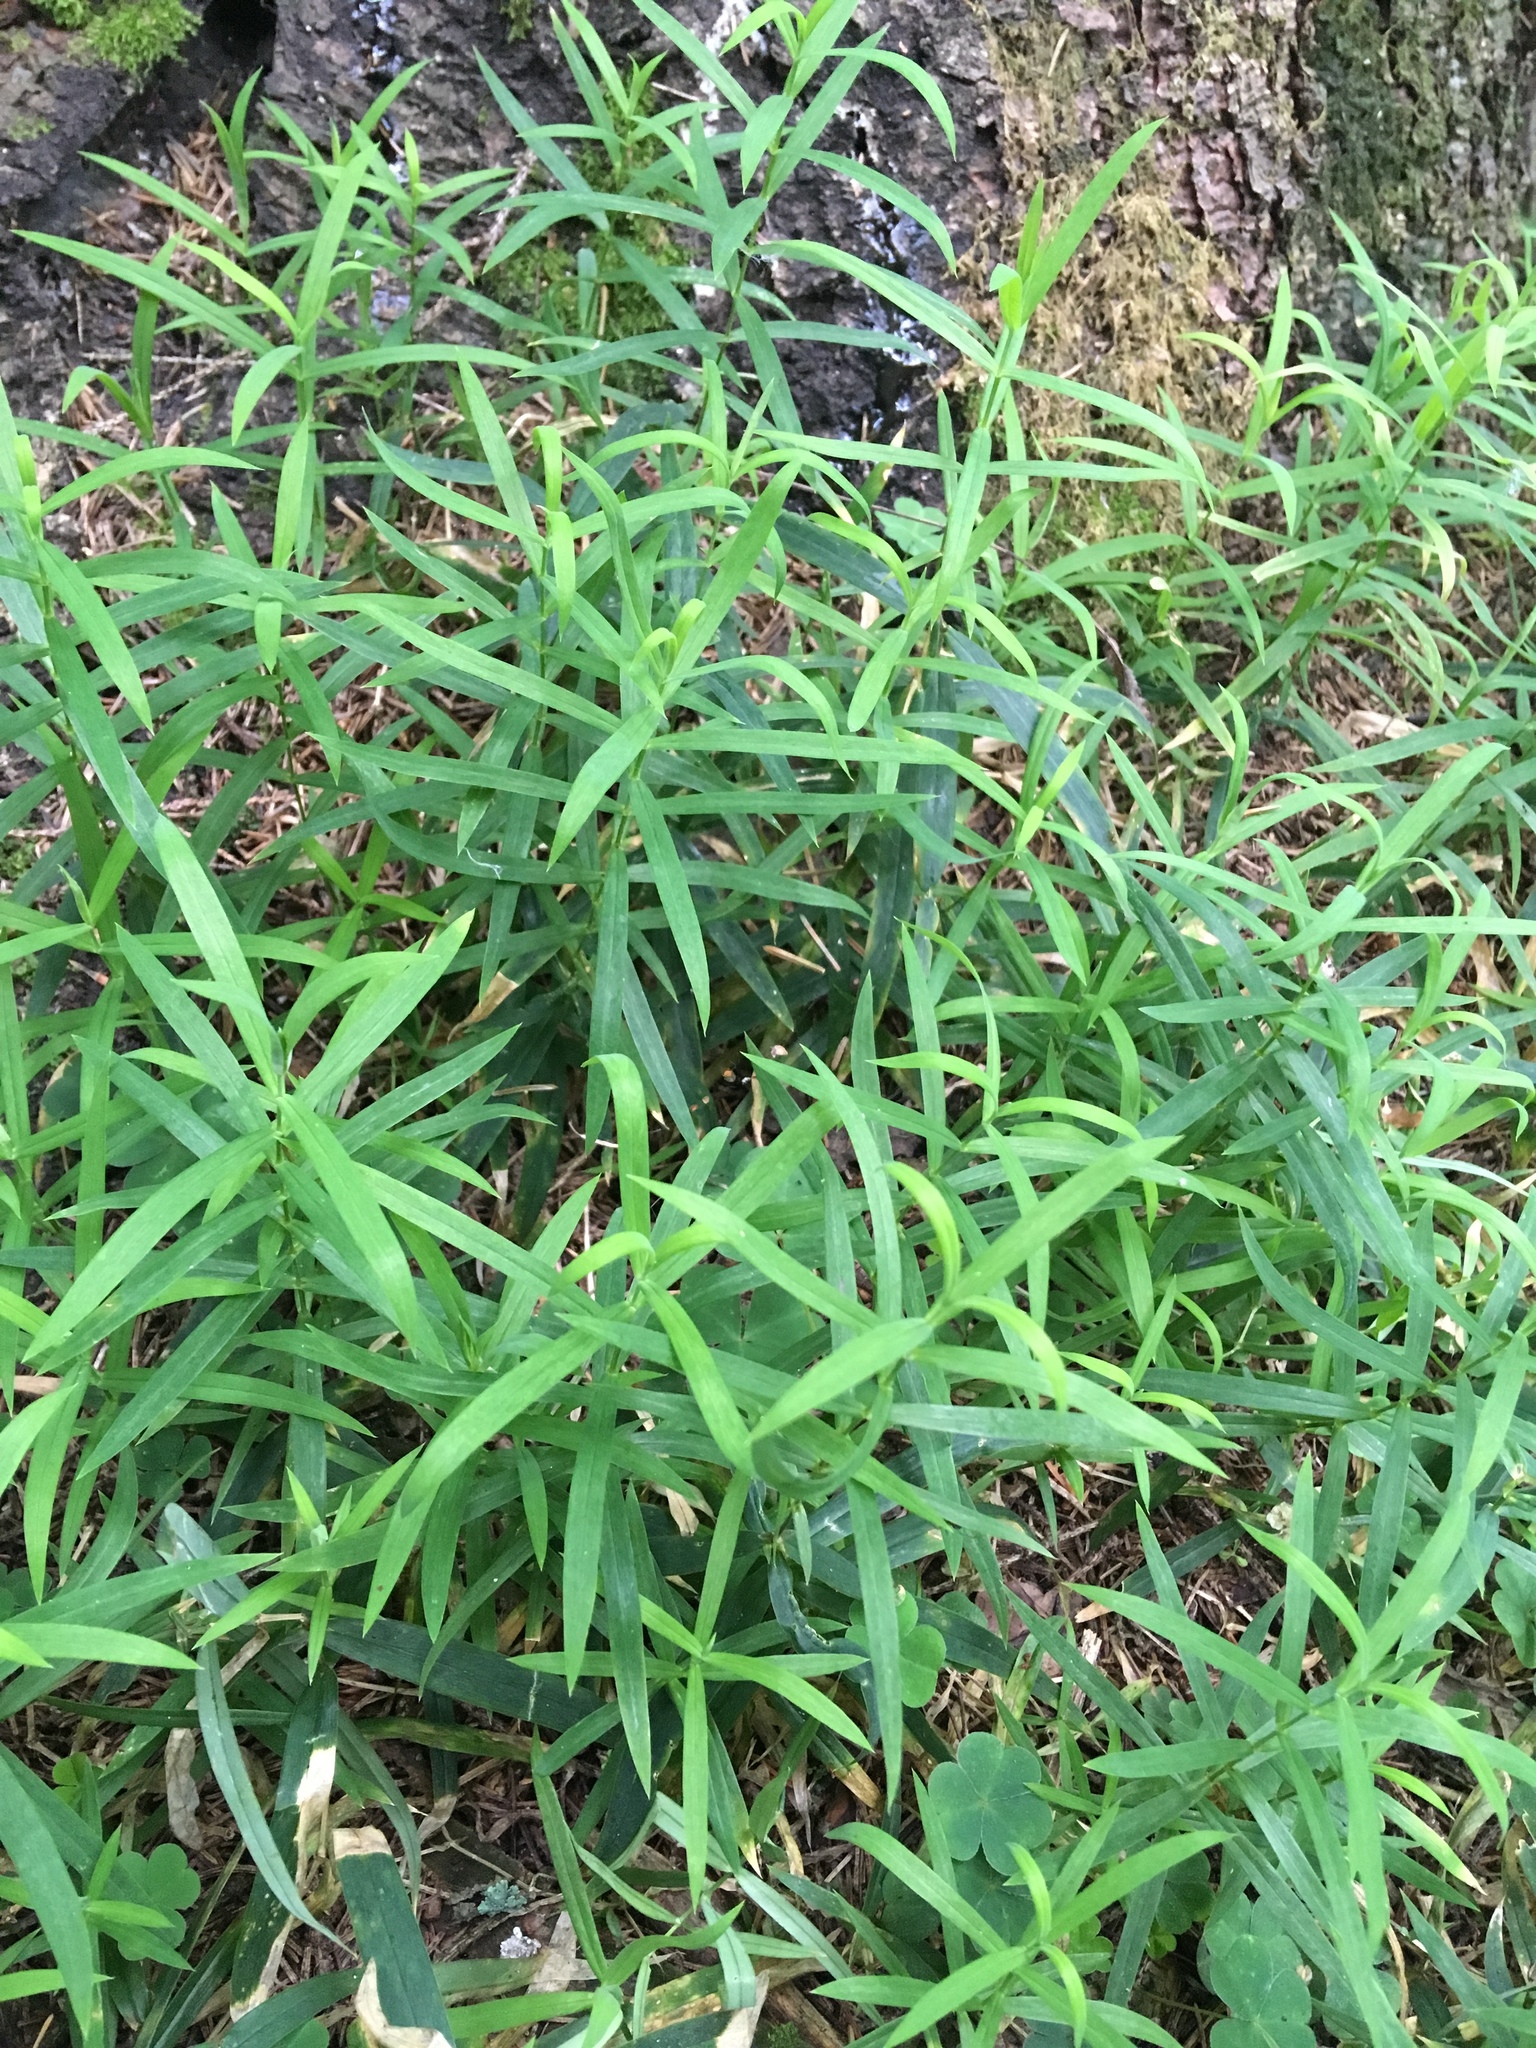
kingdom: Plantae
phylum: Tracheophyta
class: Magnoliopsida
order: Caryophyllales
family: Caryophyllaceae
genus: Rabelera
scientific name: Rabelera holostea
